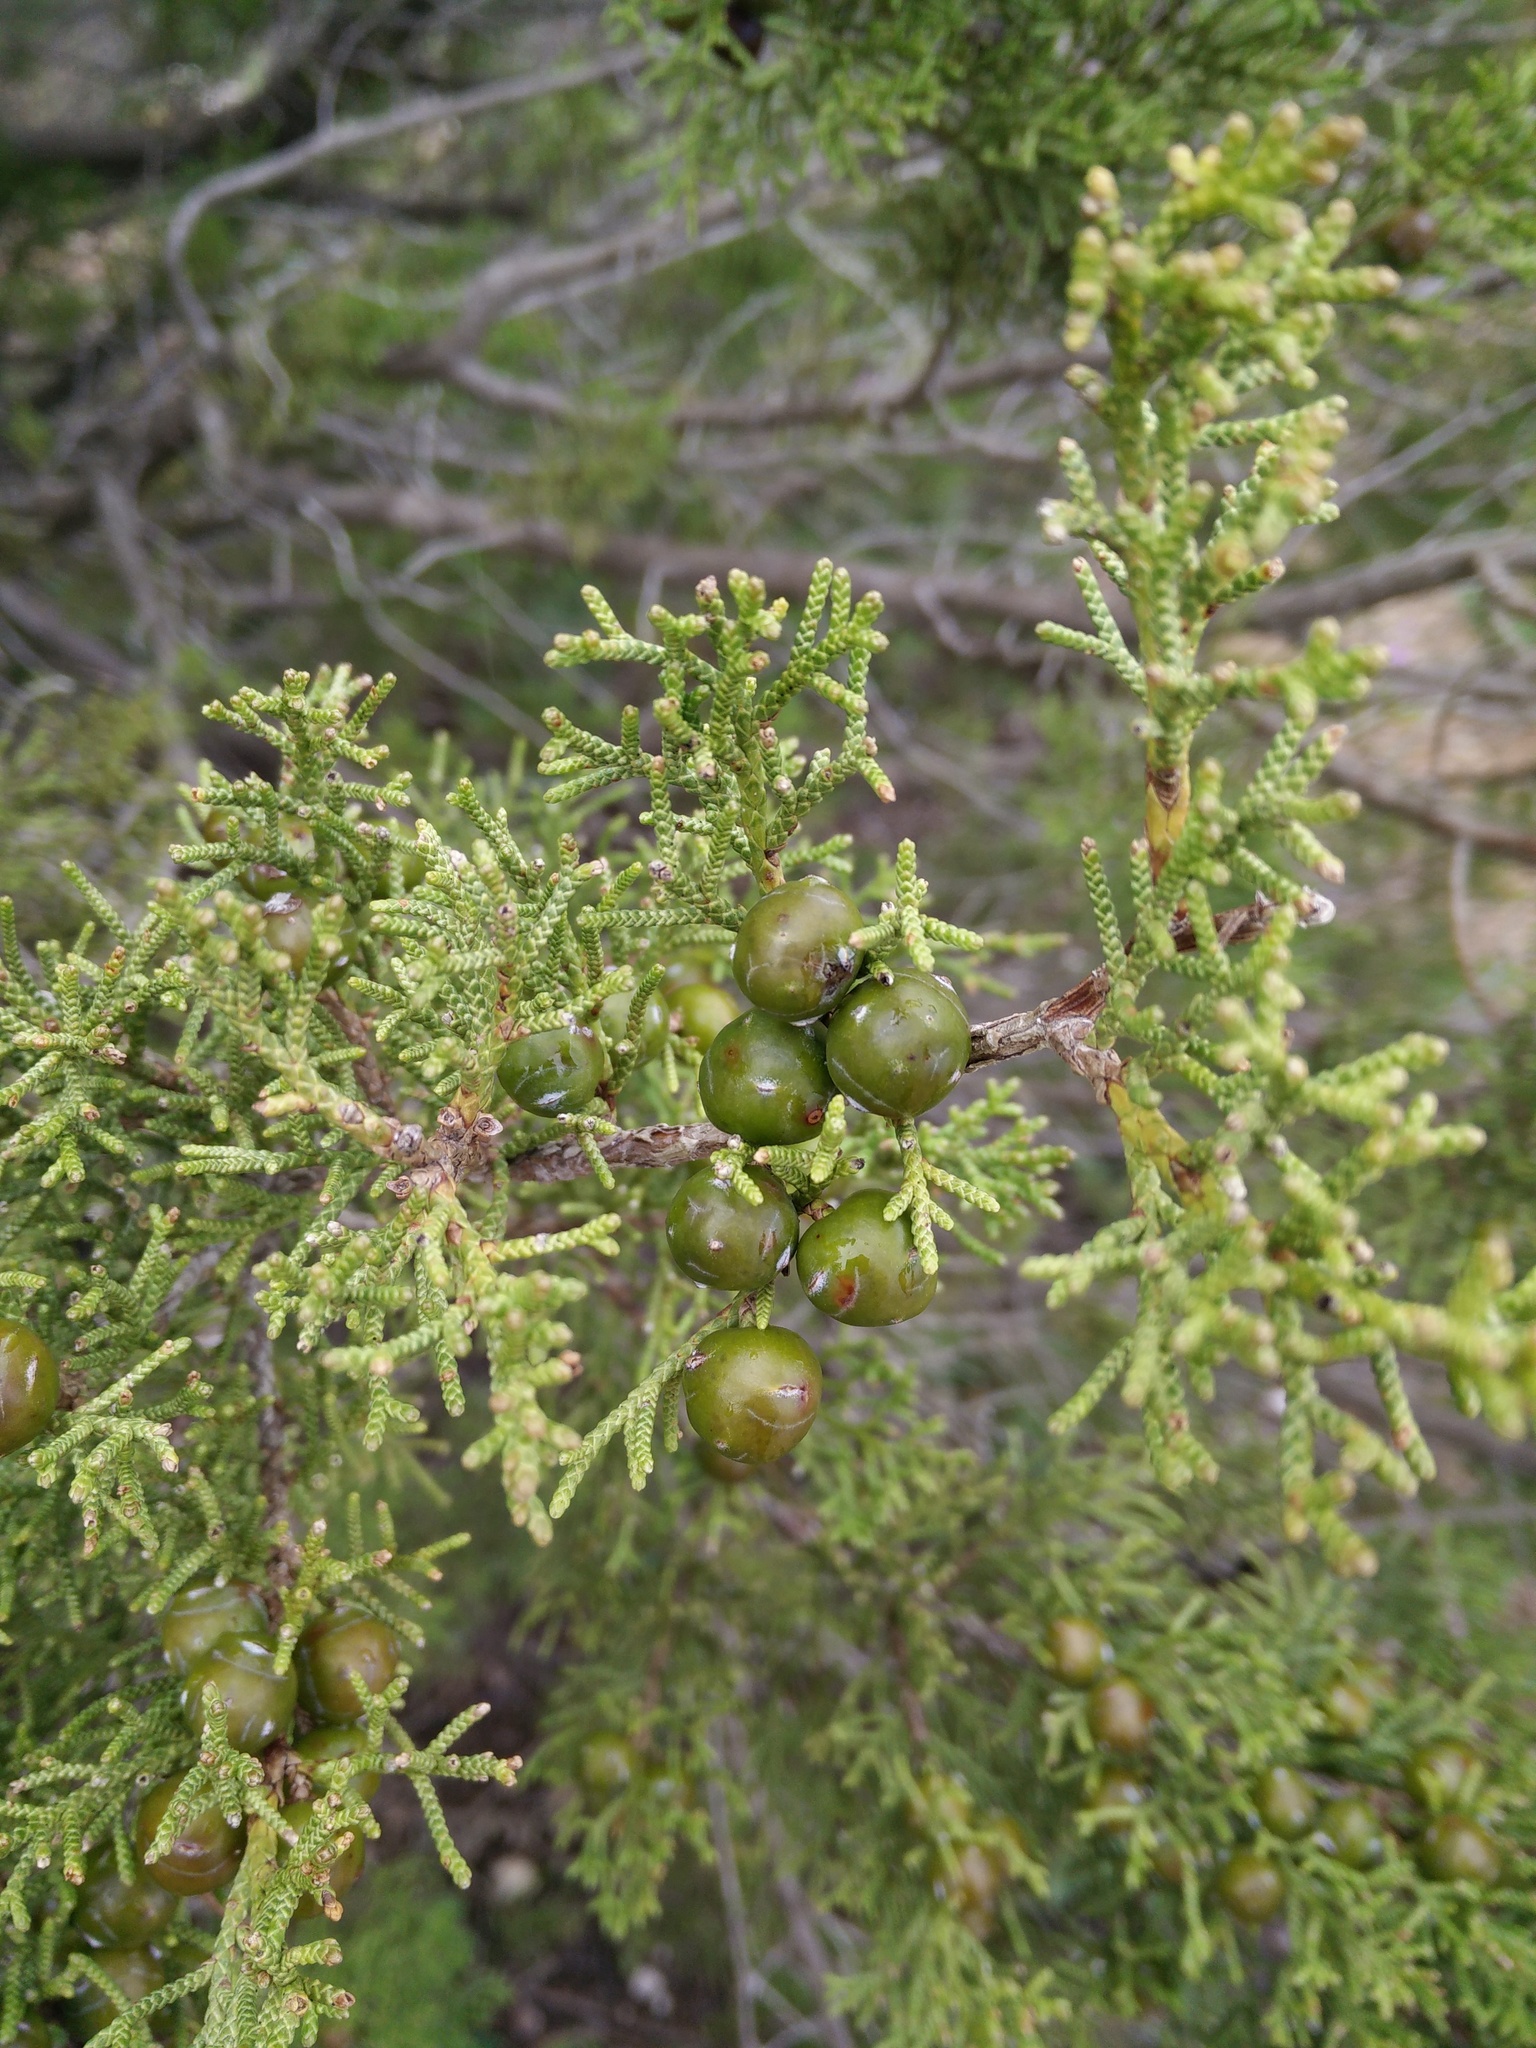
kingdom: Plantae
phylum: Tracheophyta
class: Pinopsida
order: Pinales
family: Cupressaceae
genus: Juniperus
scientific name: Juniperus phoenicea
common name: Phoenician juniper
